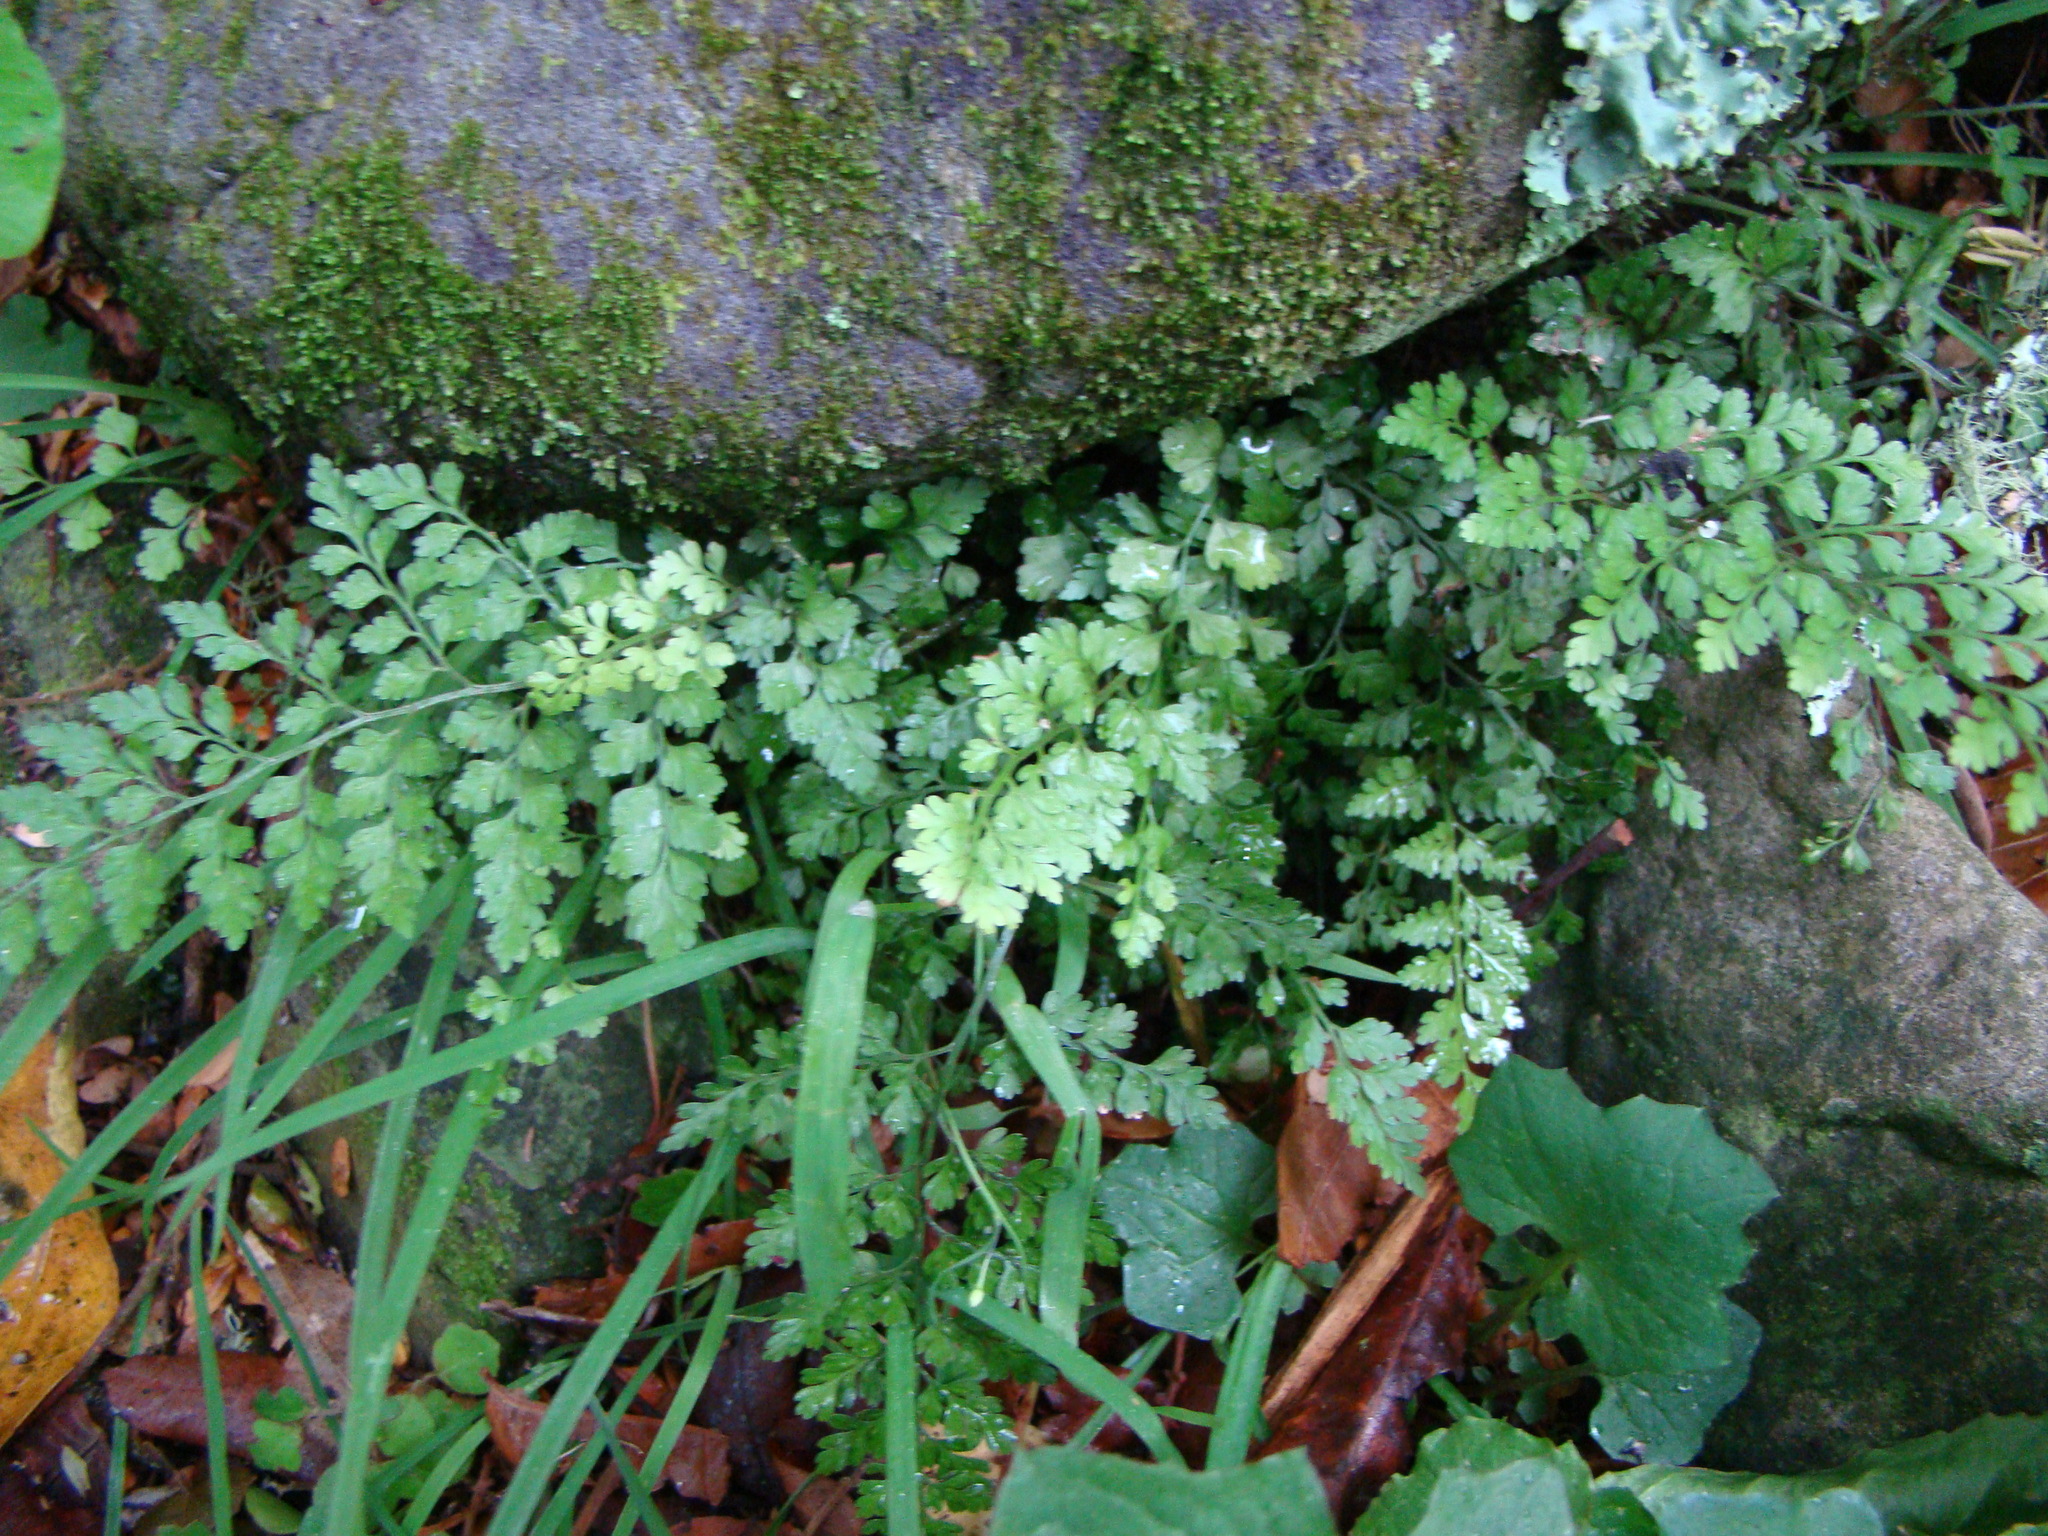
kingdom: Plantae
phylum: Tracheophyta
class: Polypodiopsida
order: Polypodiales
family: Aspleniaceae
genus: Asplenium
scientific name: Asplenium hookerianum
